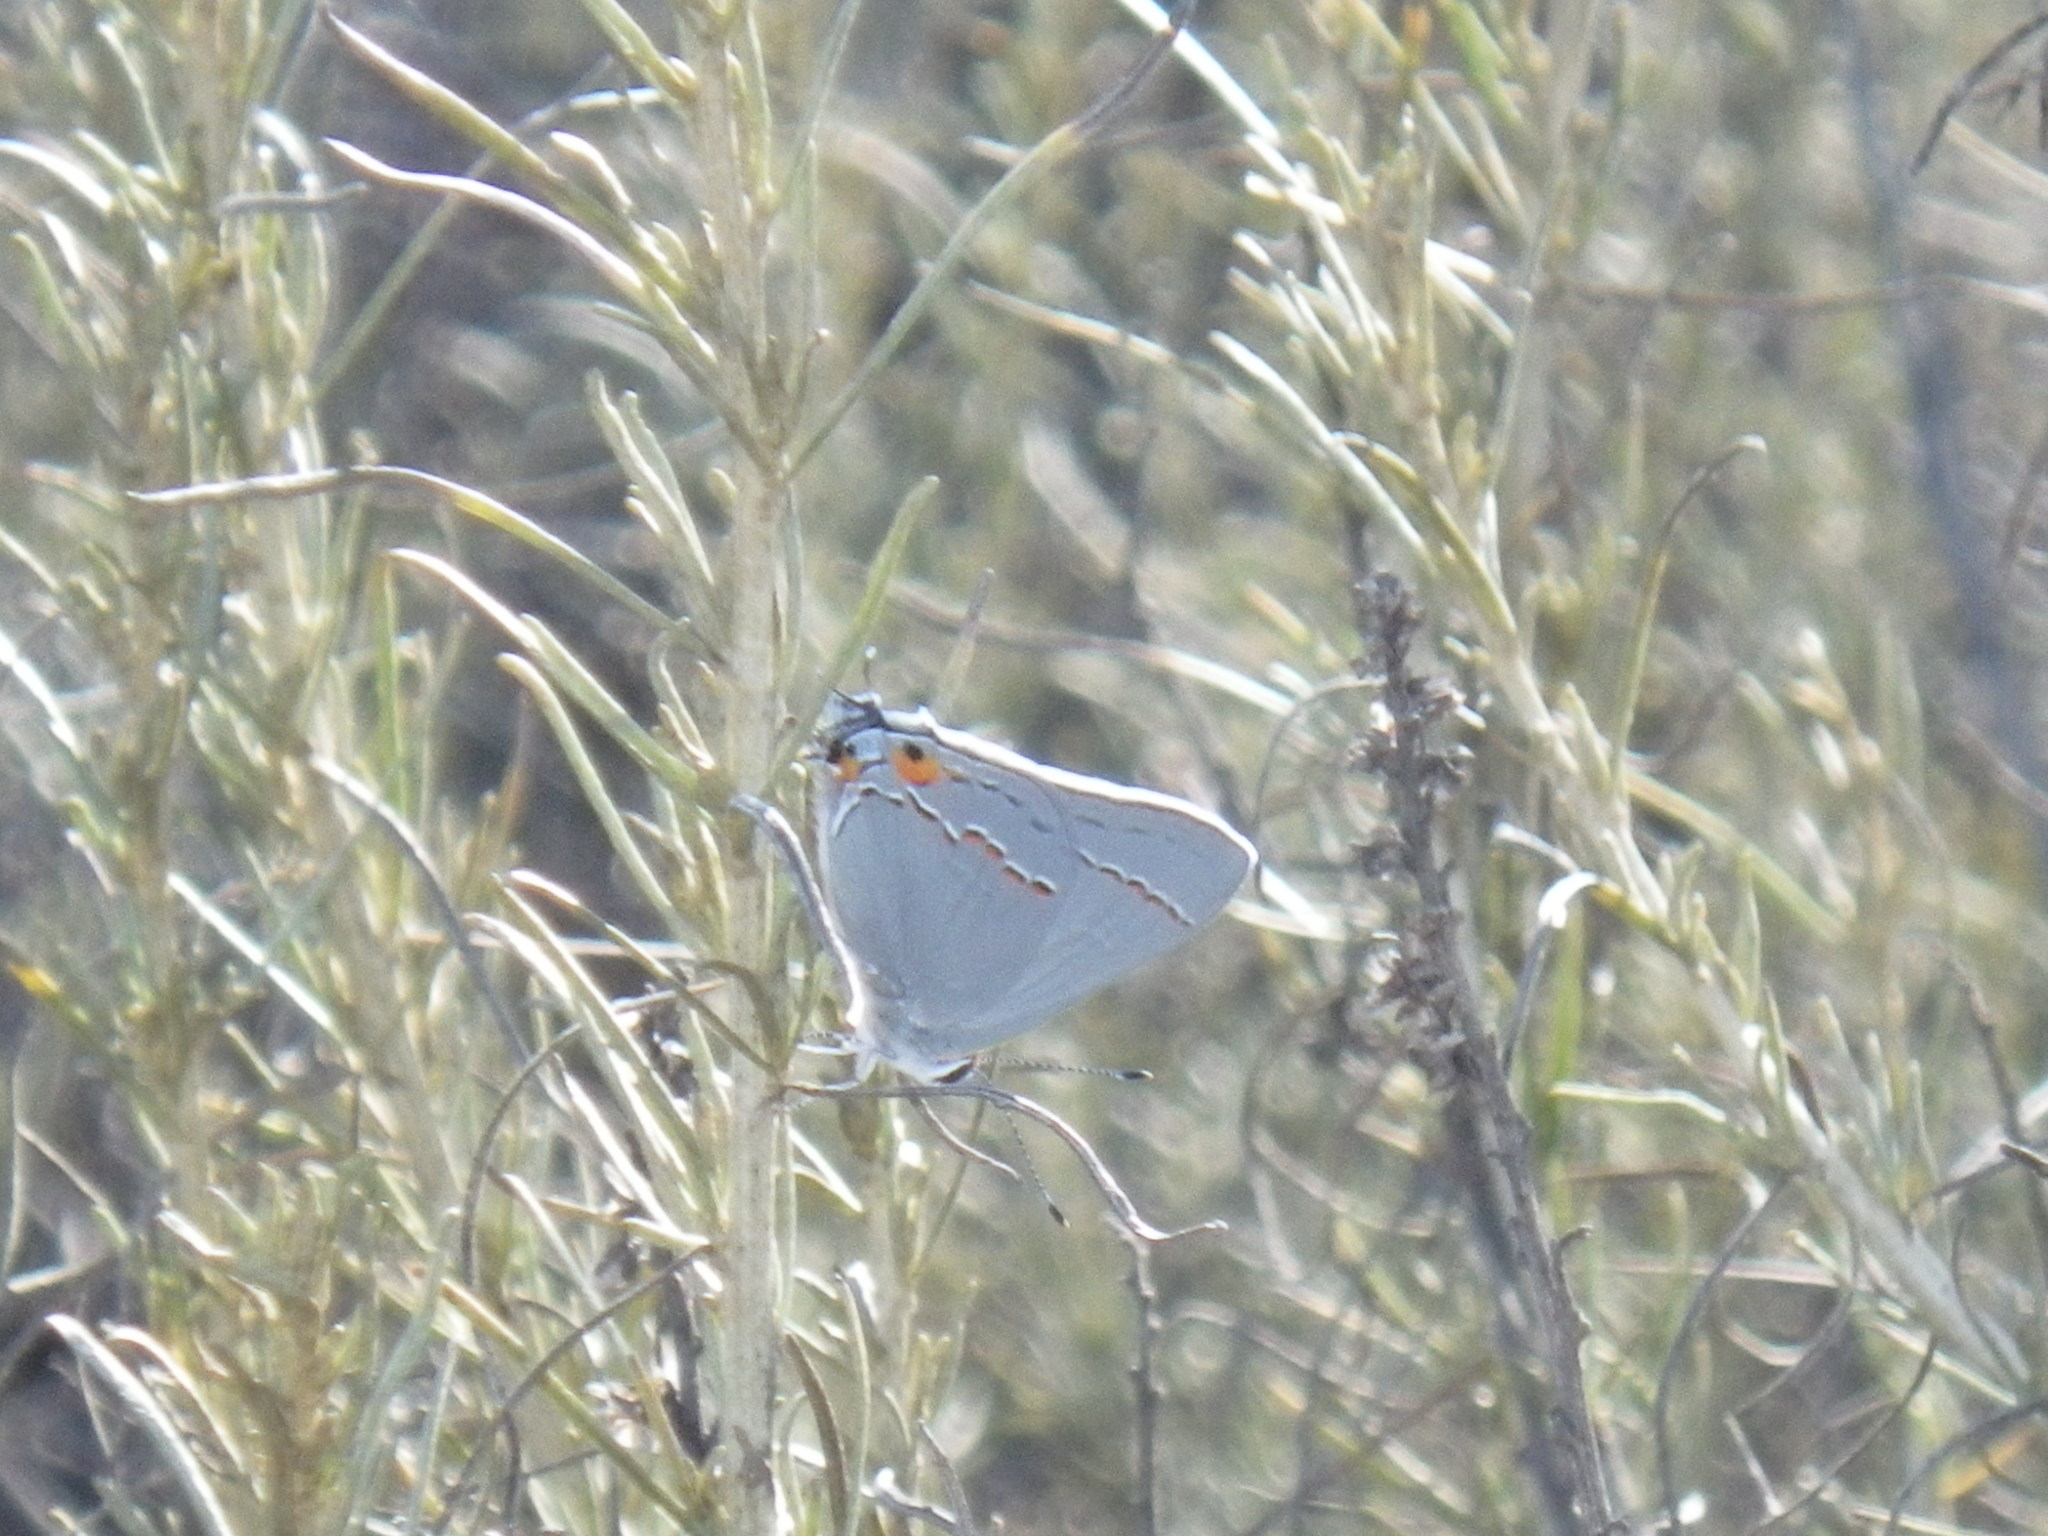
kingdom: Animalia
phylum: Arthropoda
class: Insecta
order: Lepidoptera
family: Lycaenidae
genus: Strymon
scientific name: Strymon melinus
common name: Gray hairstreak
